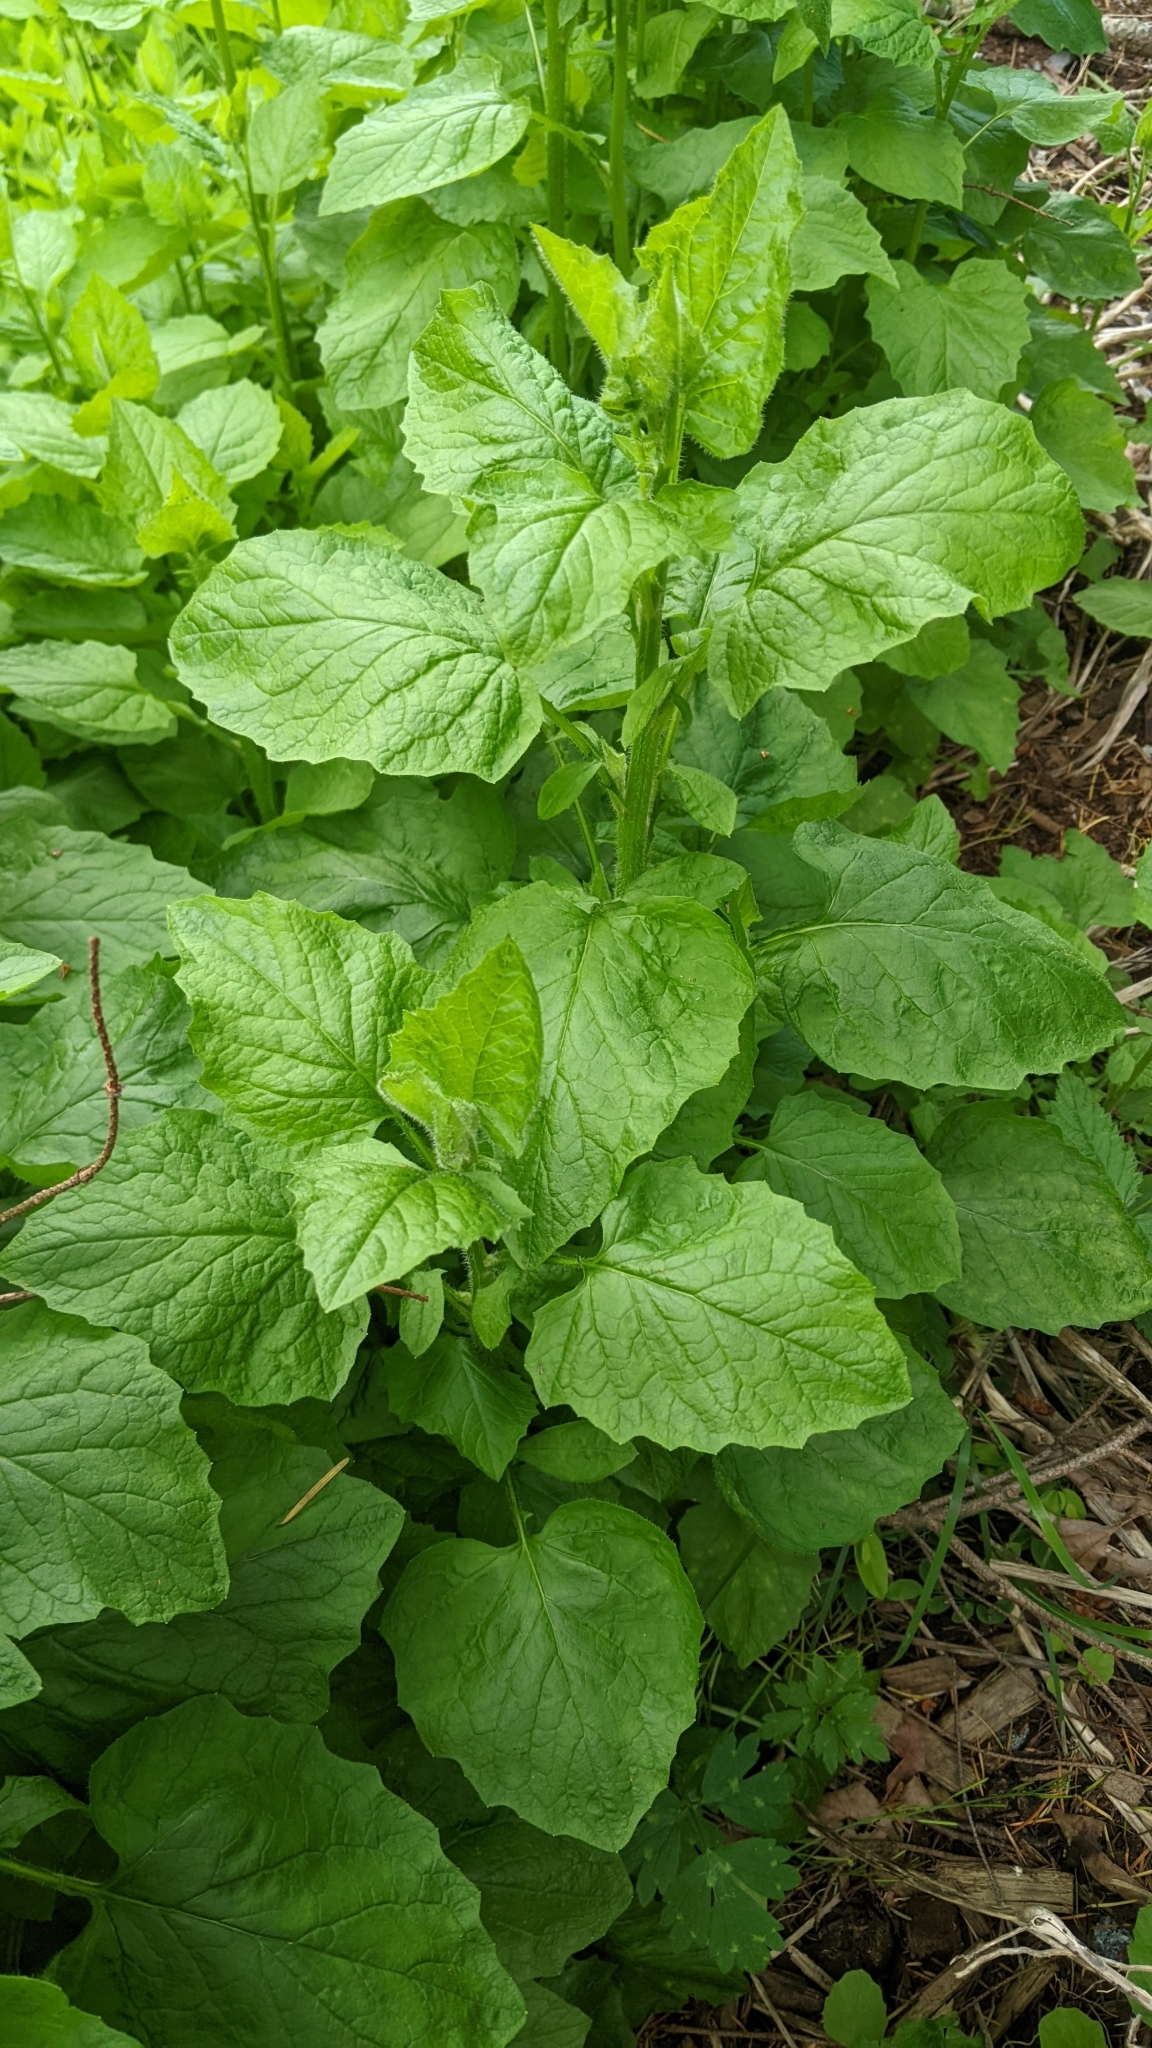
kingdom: Plantae
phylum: Tracheophyta
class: Magnoliopsida
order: Asterales
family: Asteraceae
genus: Lapsana
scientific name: Lapsana communis
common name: Nipplewort
